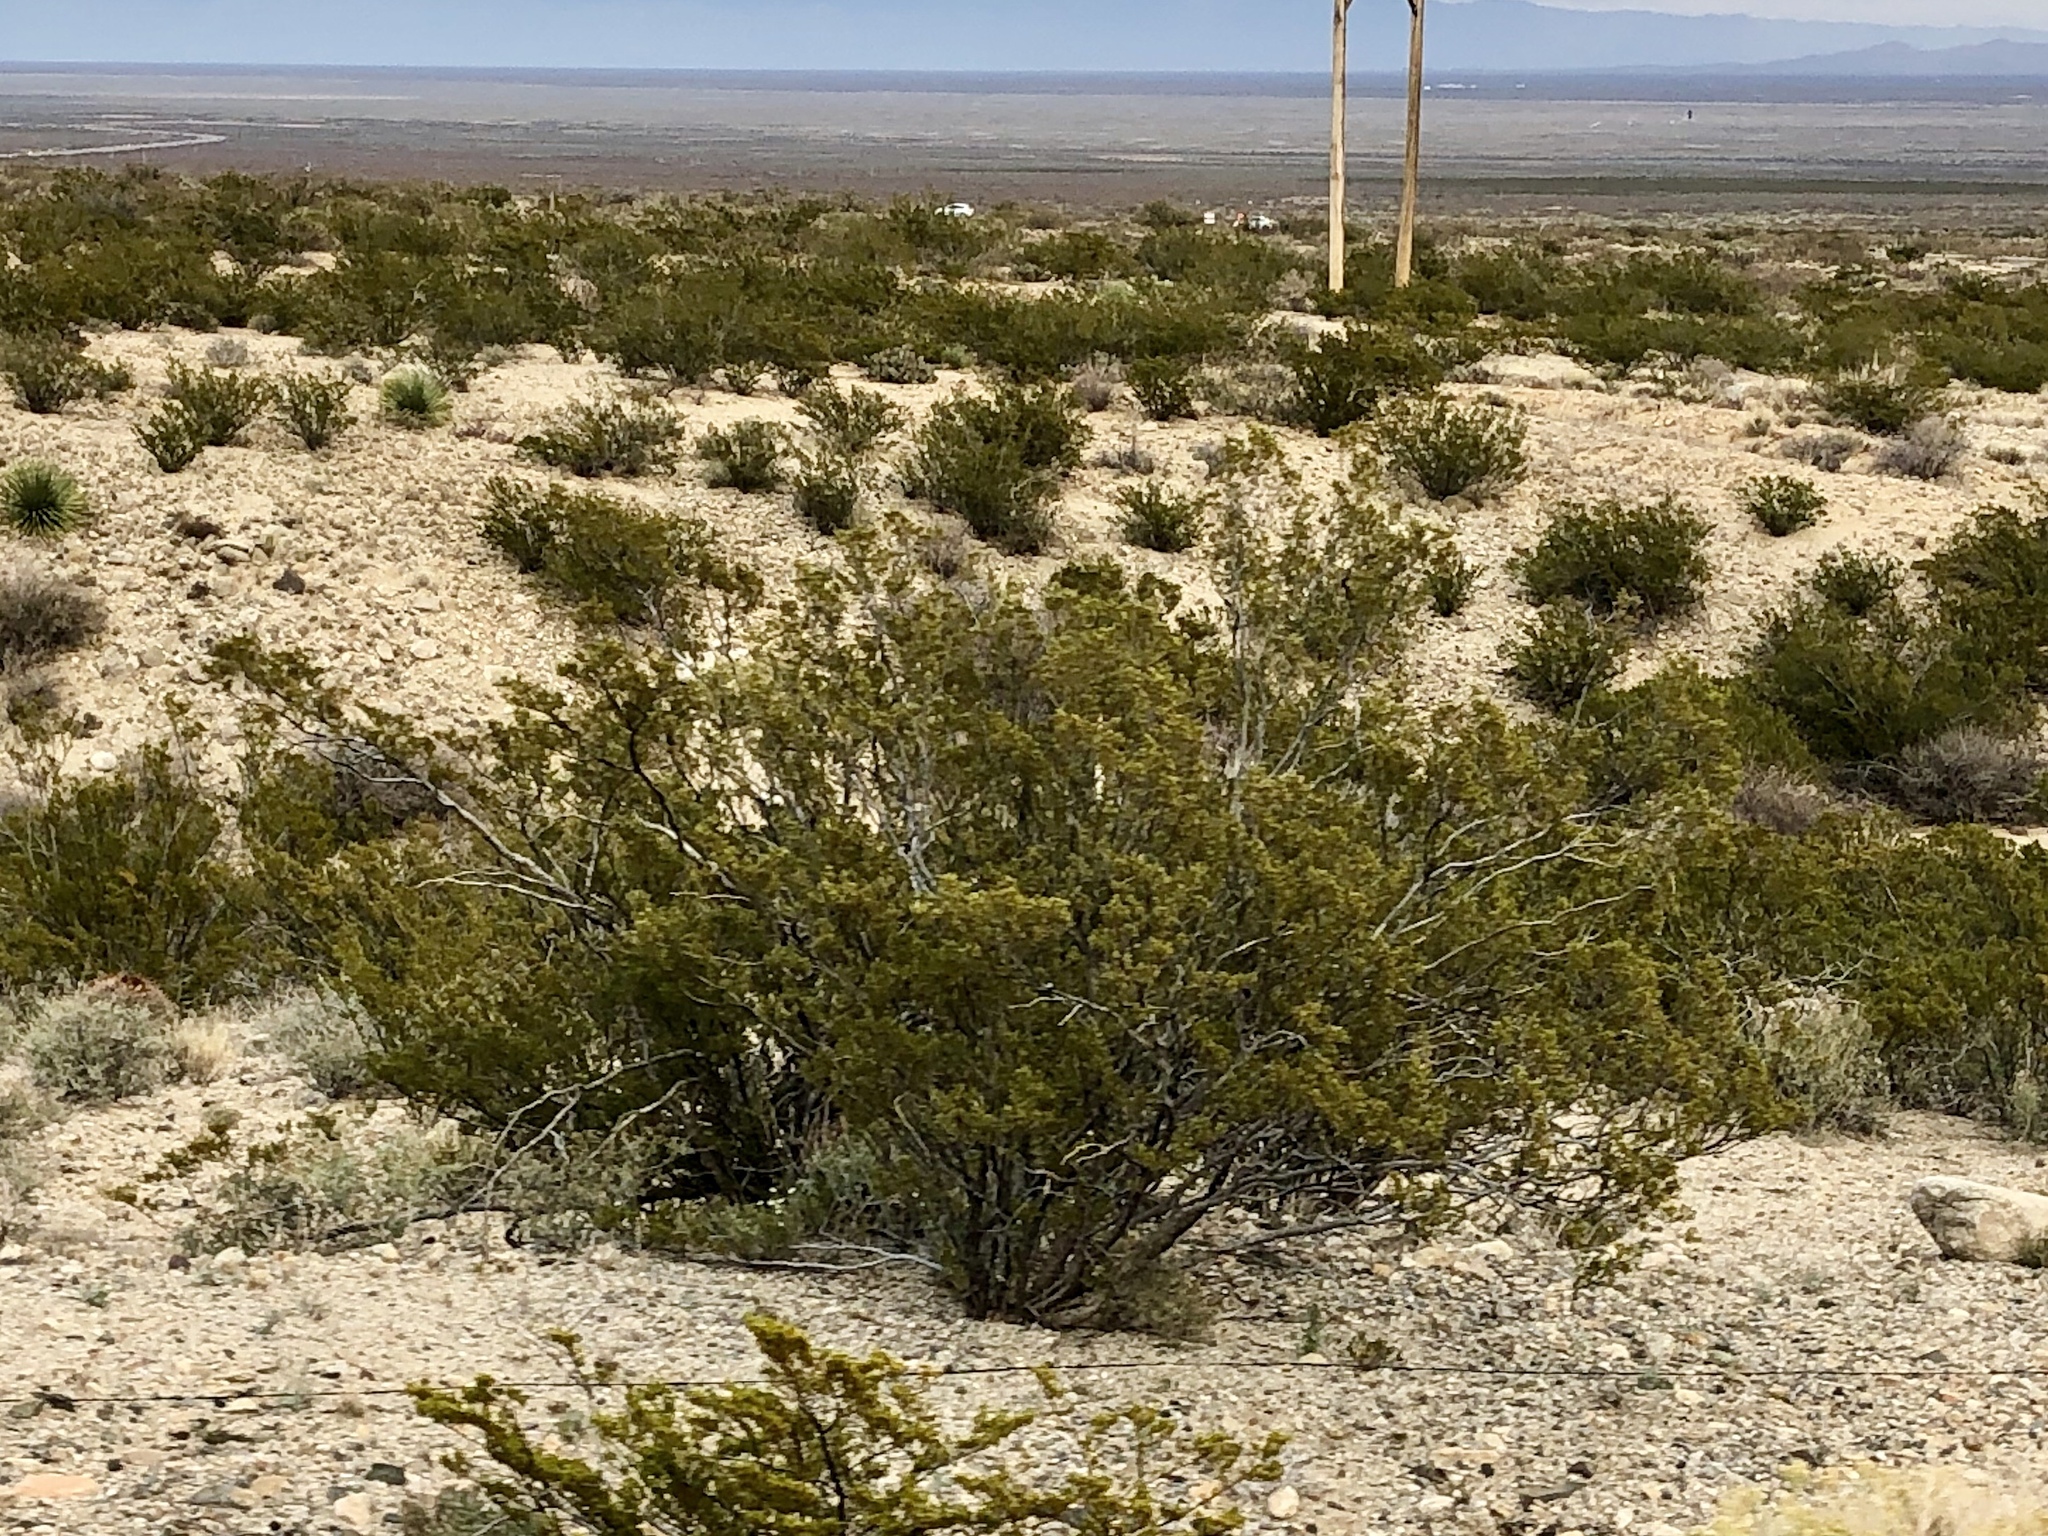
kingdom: Plantae
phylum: Tracheophyta
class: Magnoliopsida
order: Zygophyllales
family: Zygophyllaceae
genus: Larrea
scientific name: Larrea tridentata
